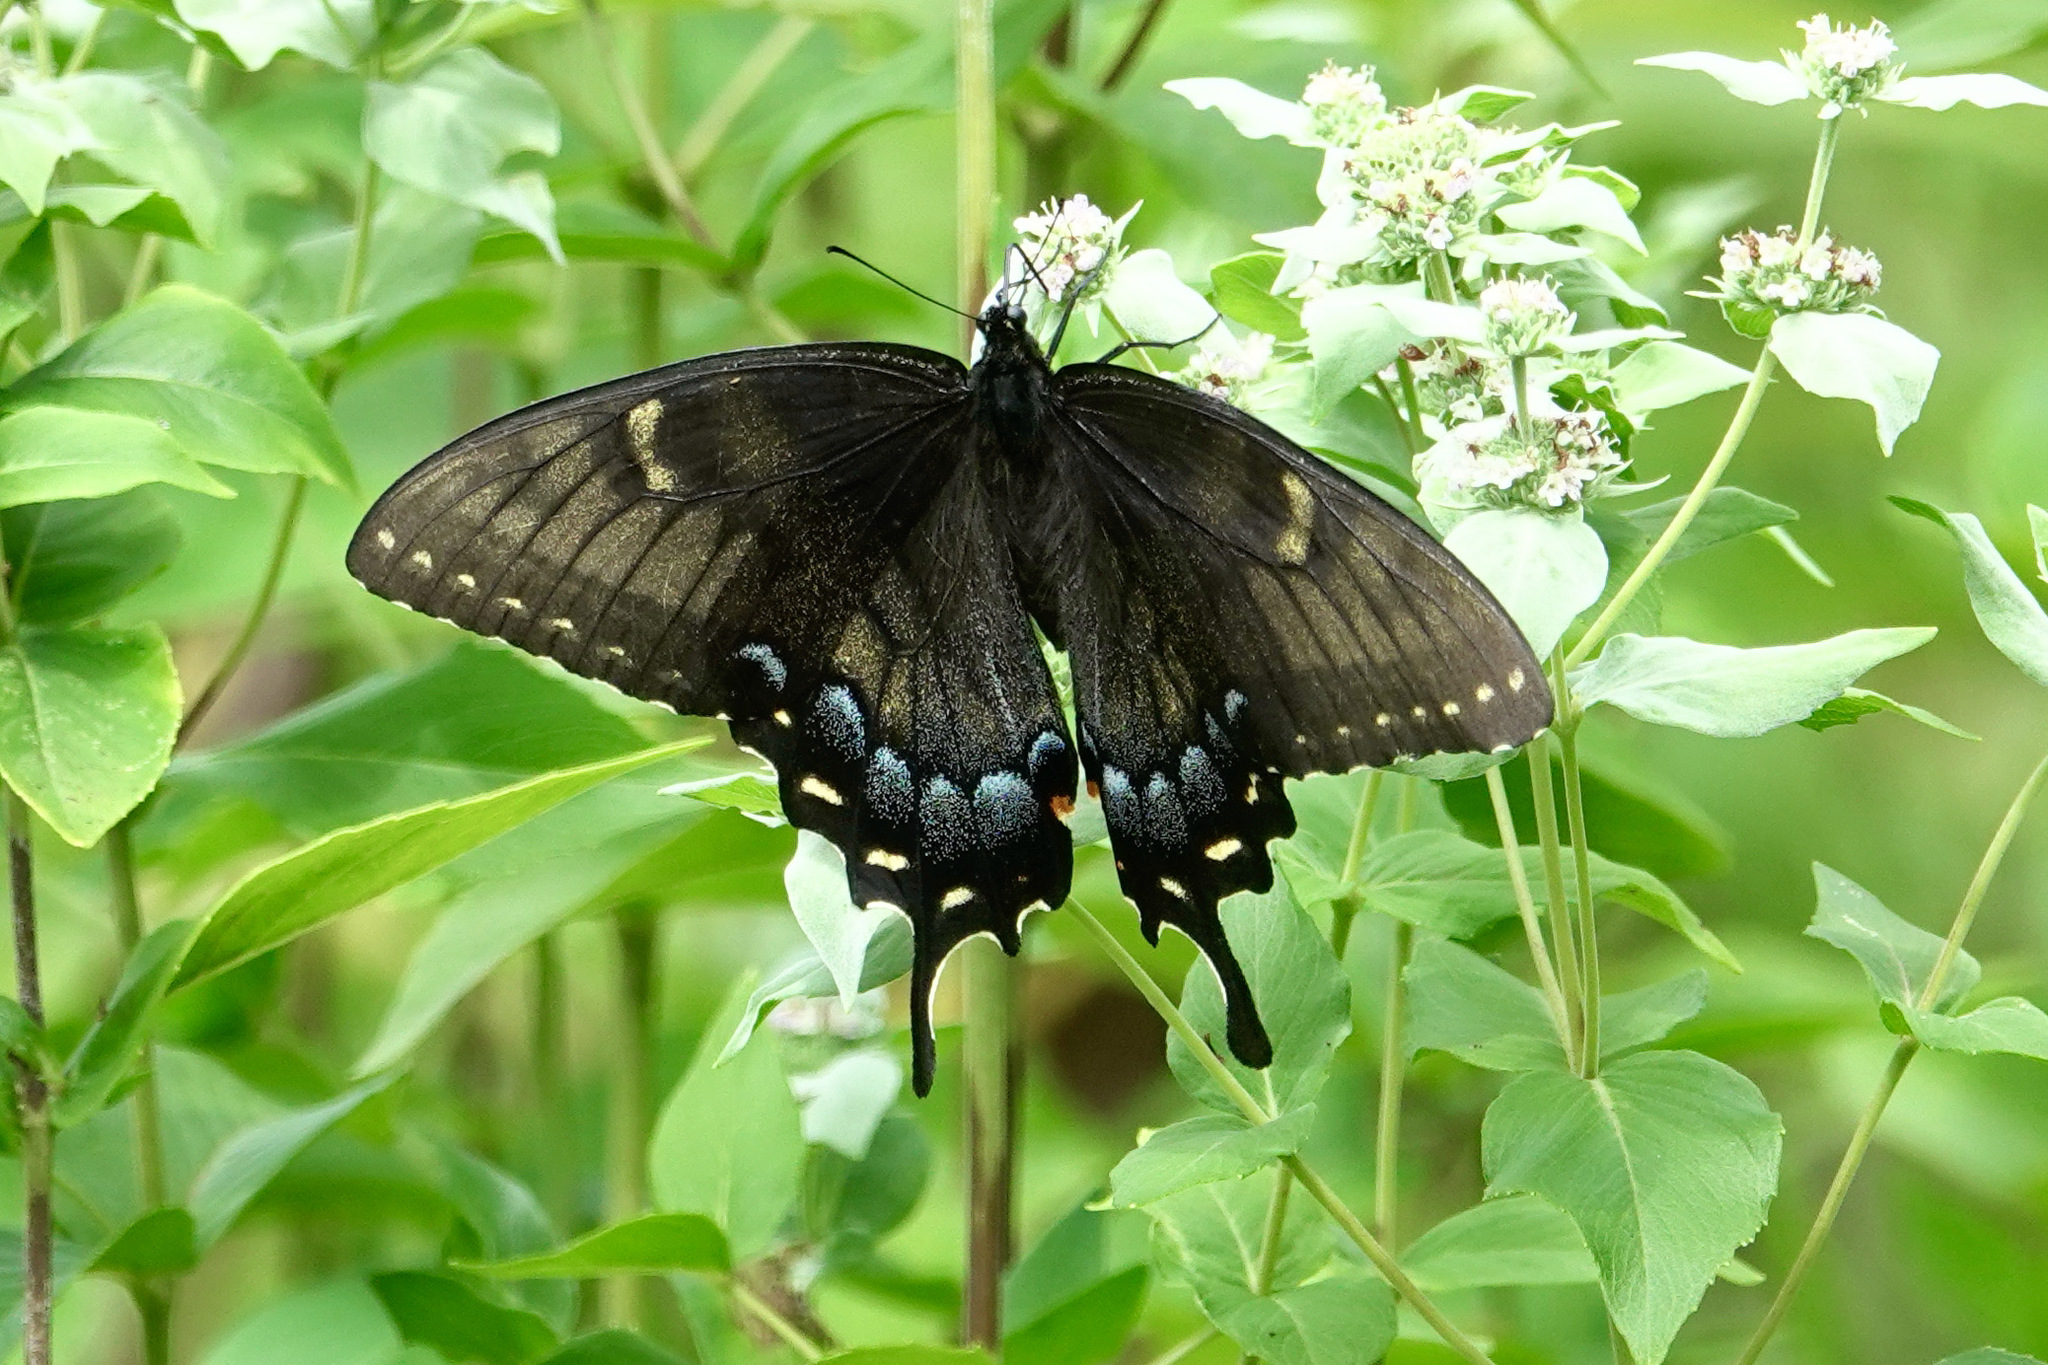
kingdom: Animalia
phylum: Arthropoda
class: Insecta
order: Lepidoptera
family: Papilionidae
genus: Papilio
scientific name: Papilio glaucus
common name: Tiger swallowtail
